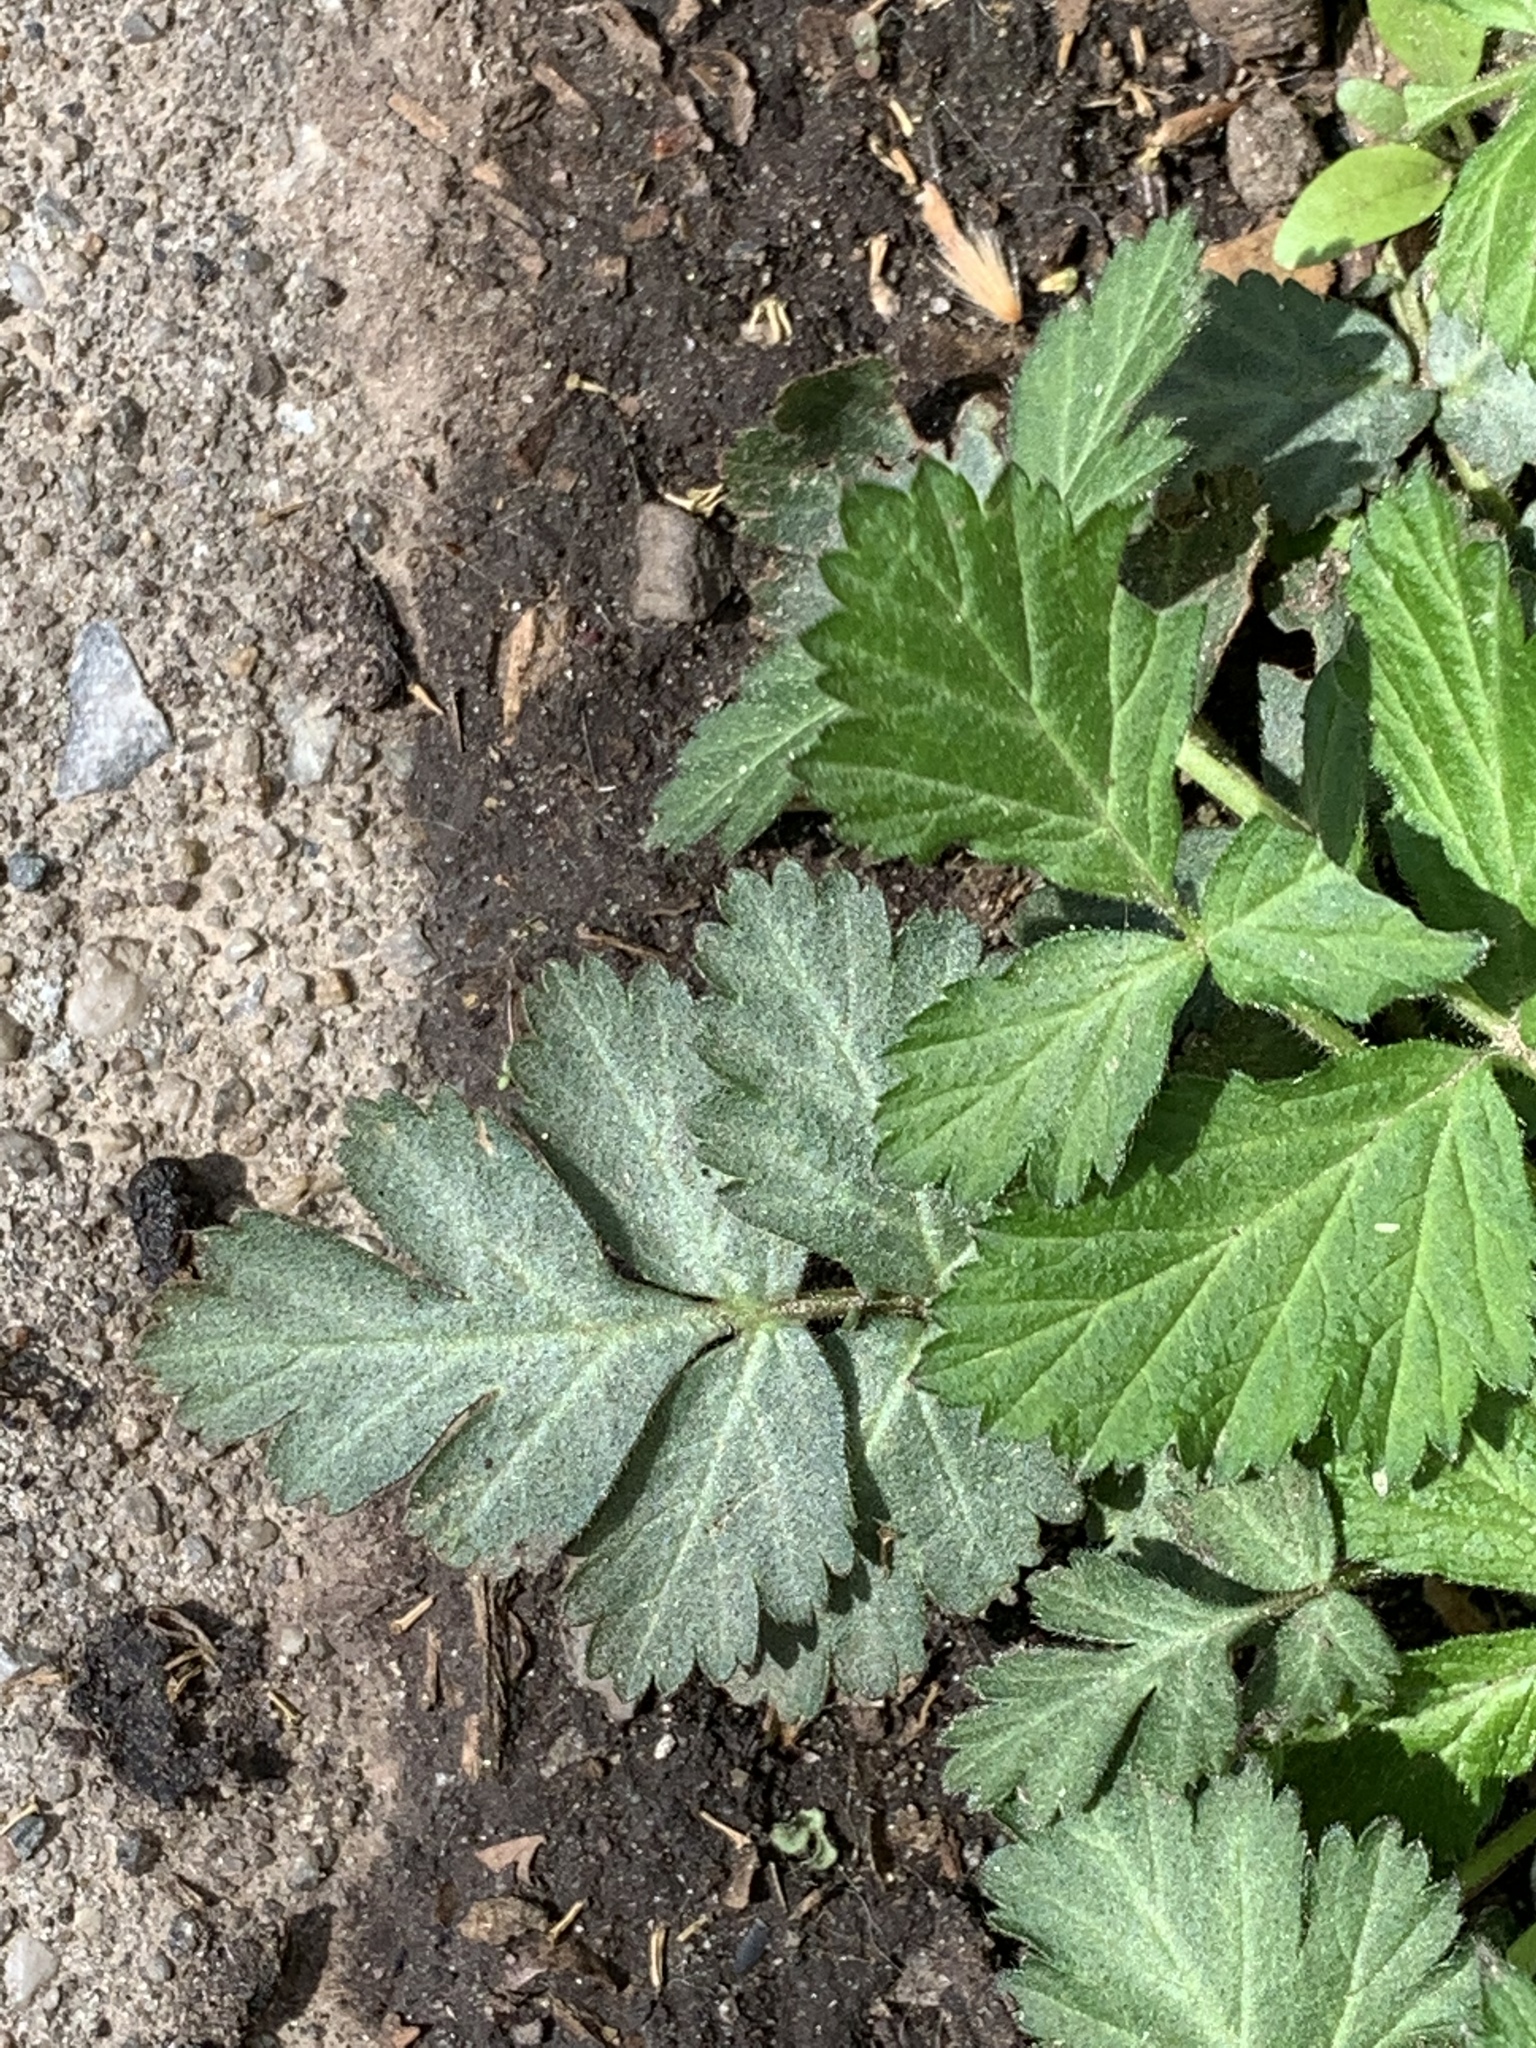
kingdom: Plantae
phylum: Tracheophyta
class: Magnoliopsida
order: Rosales
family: Rosaceae
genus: Geum
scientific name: Geum canadense
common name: White avens
